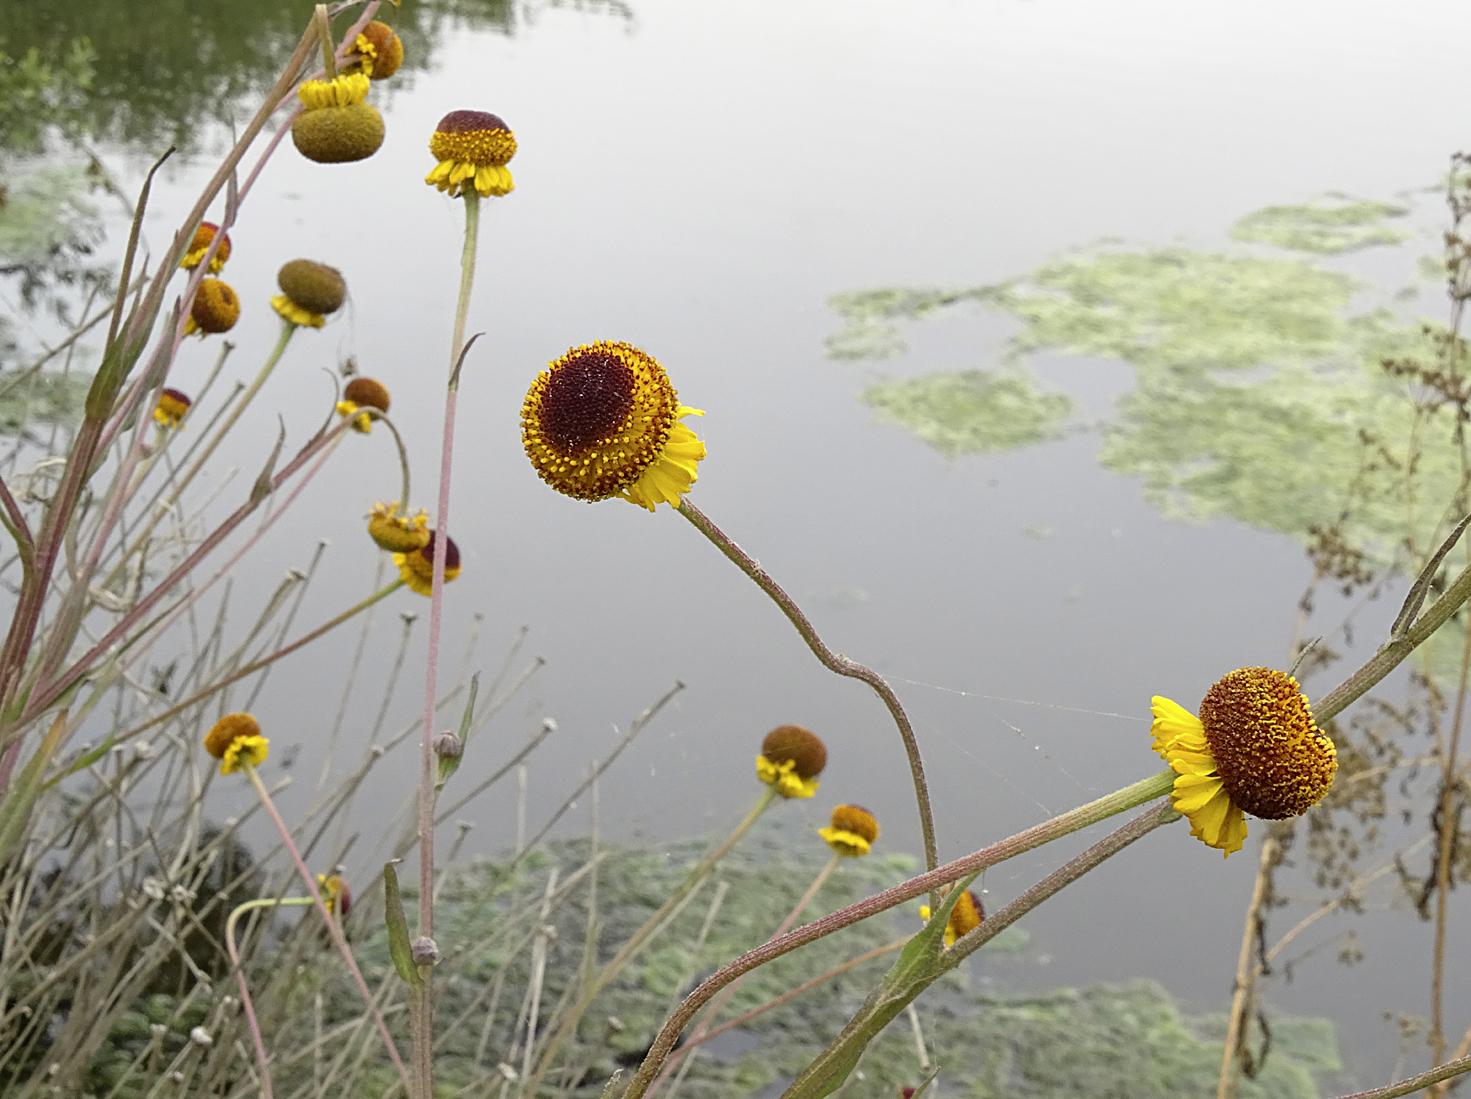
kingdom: Plantae
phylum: Tracheophyta
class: Magnoliopsida
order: Asterales
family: Asteraceae
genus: Helenium
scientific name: Helenium puberulum
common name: Sneezewort
